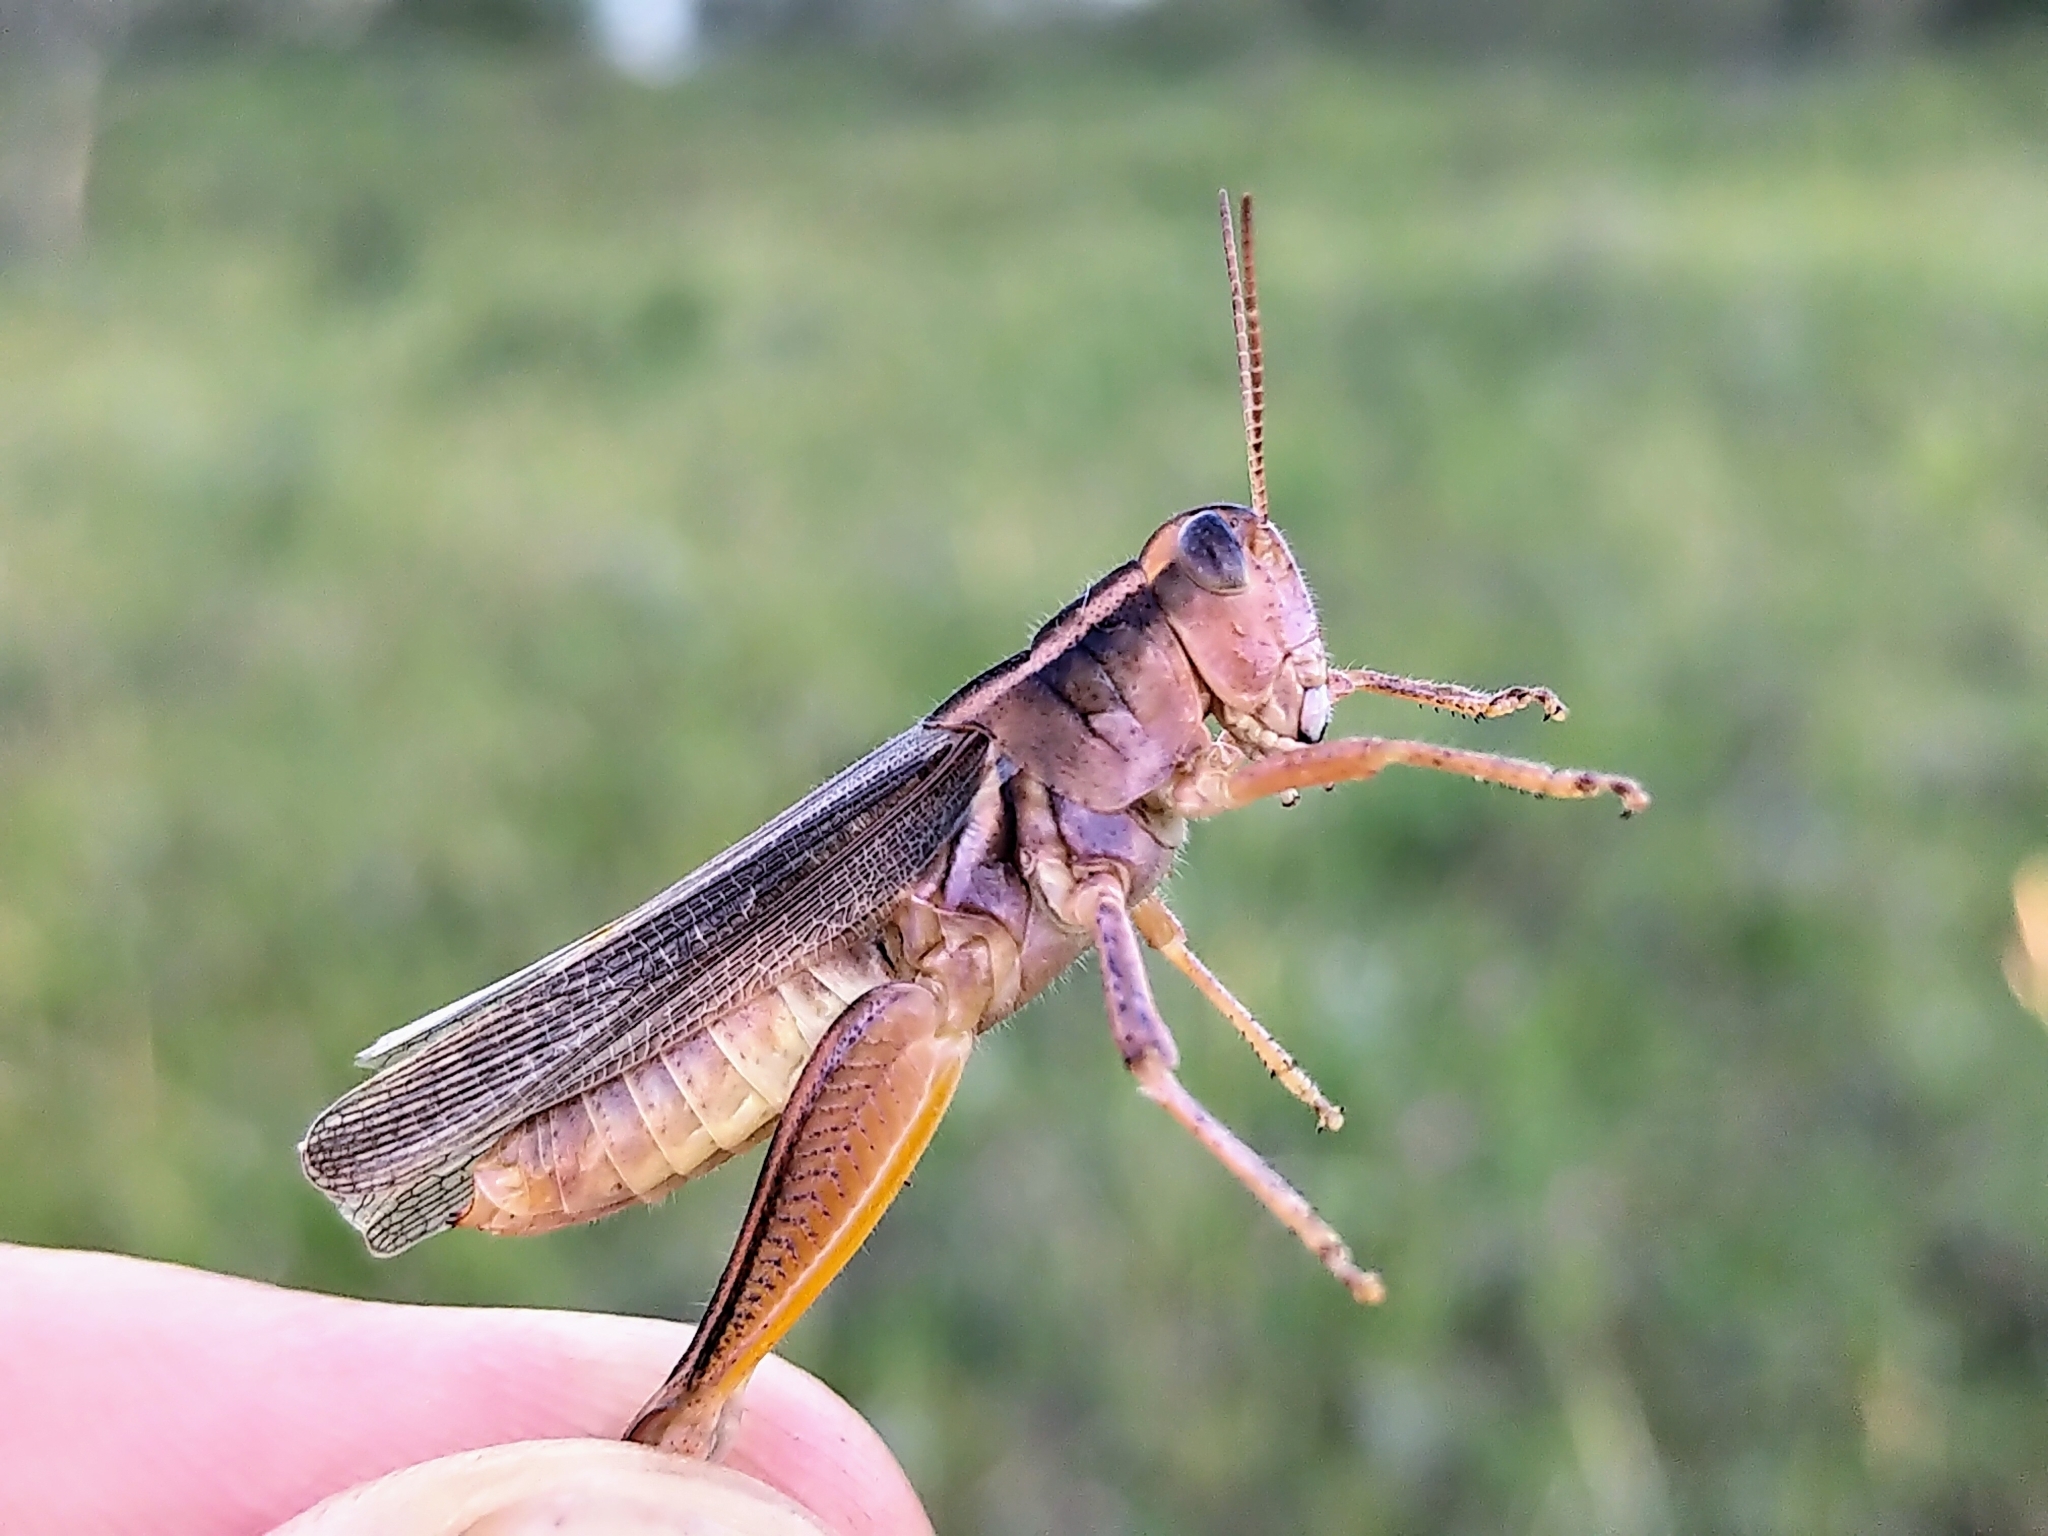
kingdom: Animalia
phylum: Arthropoda
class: Insecta
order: Orthoptera
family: Acrididae
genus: Melanoplus
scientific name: Melanoplus bivittatus
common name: Two-striped grasshopper
